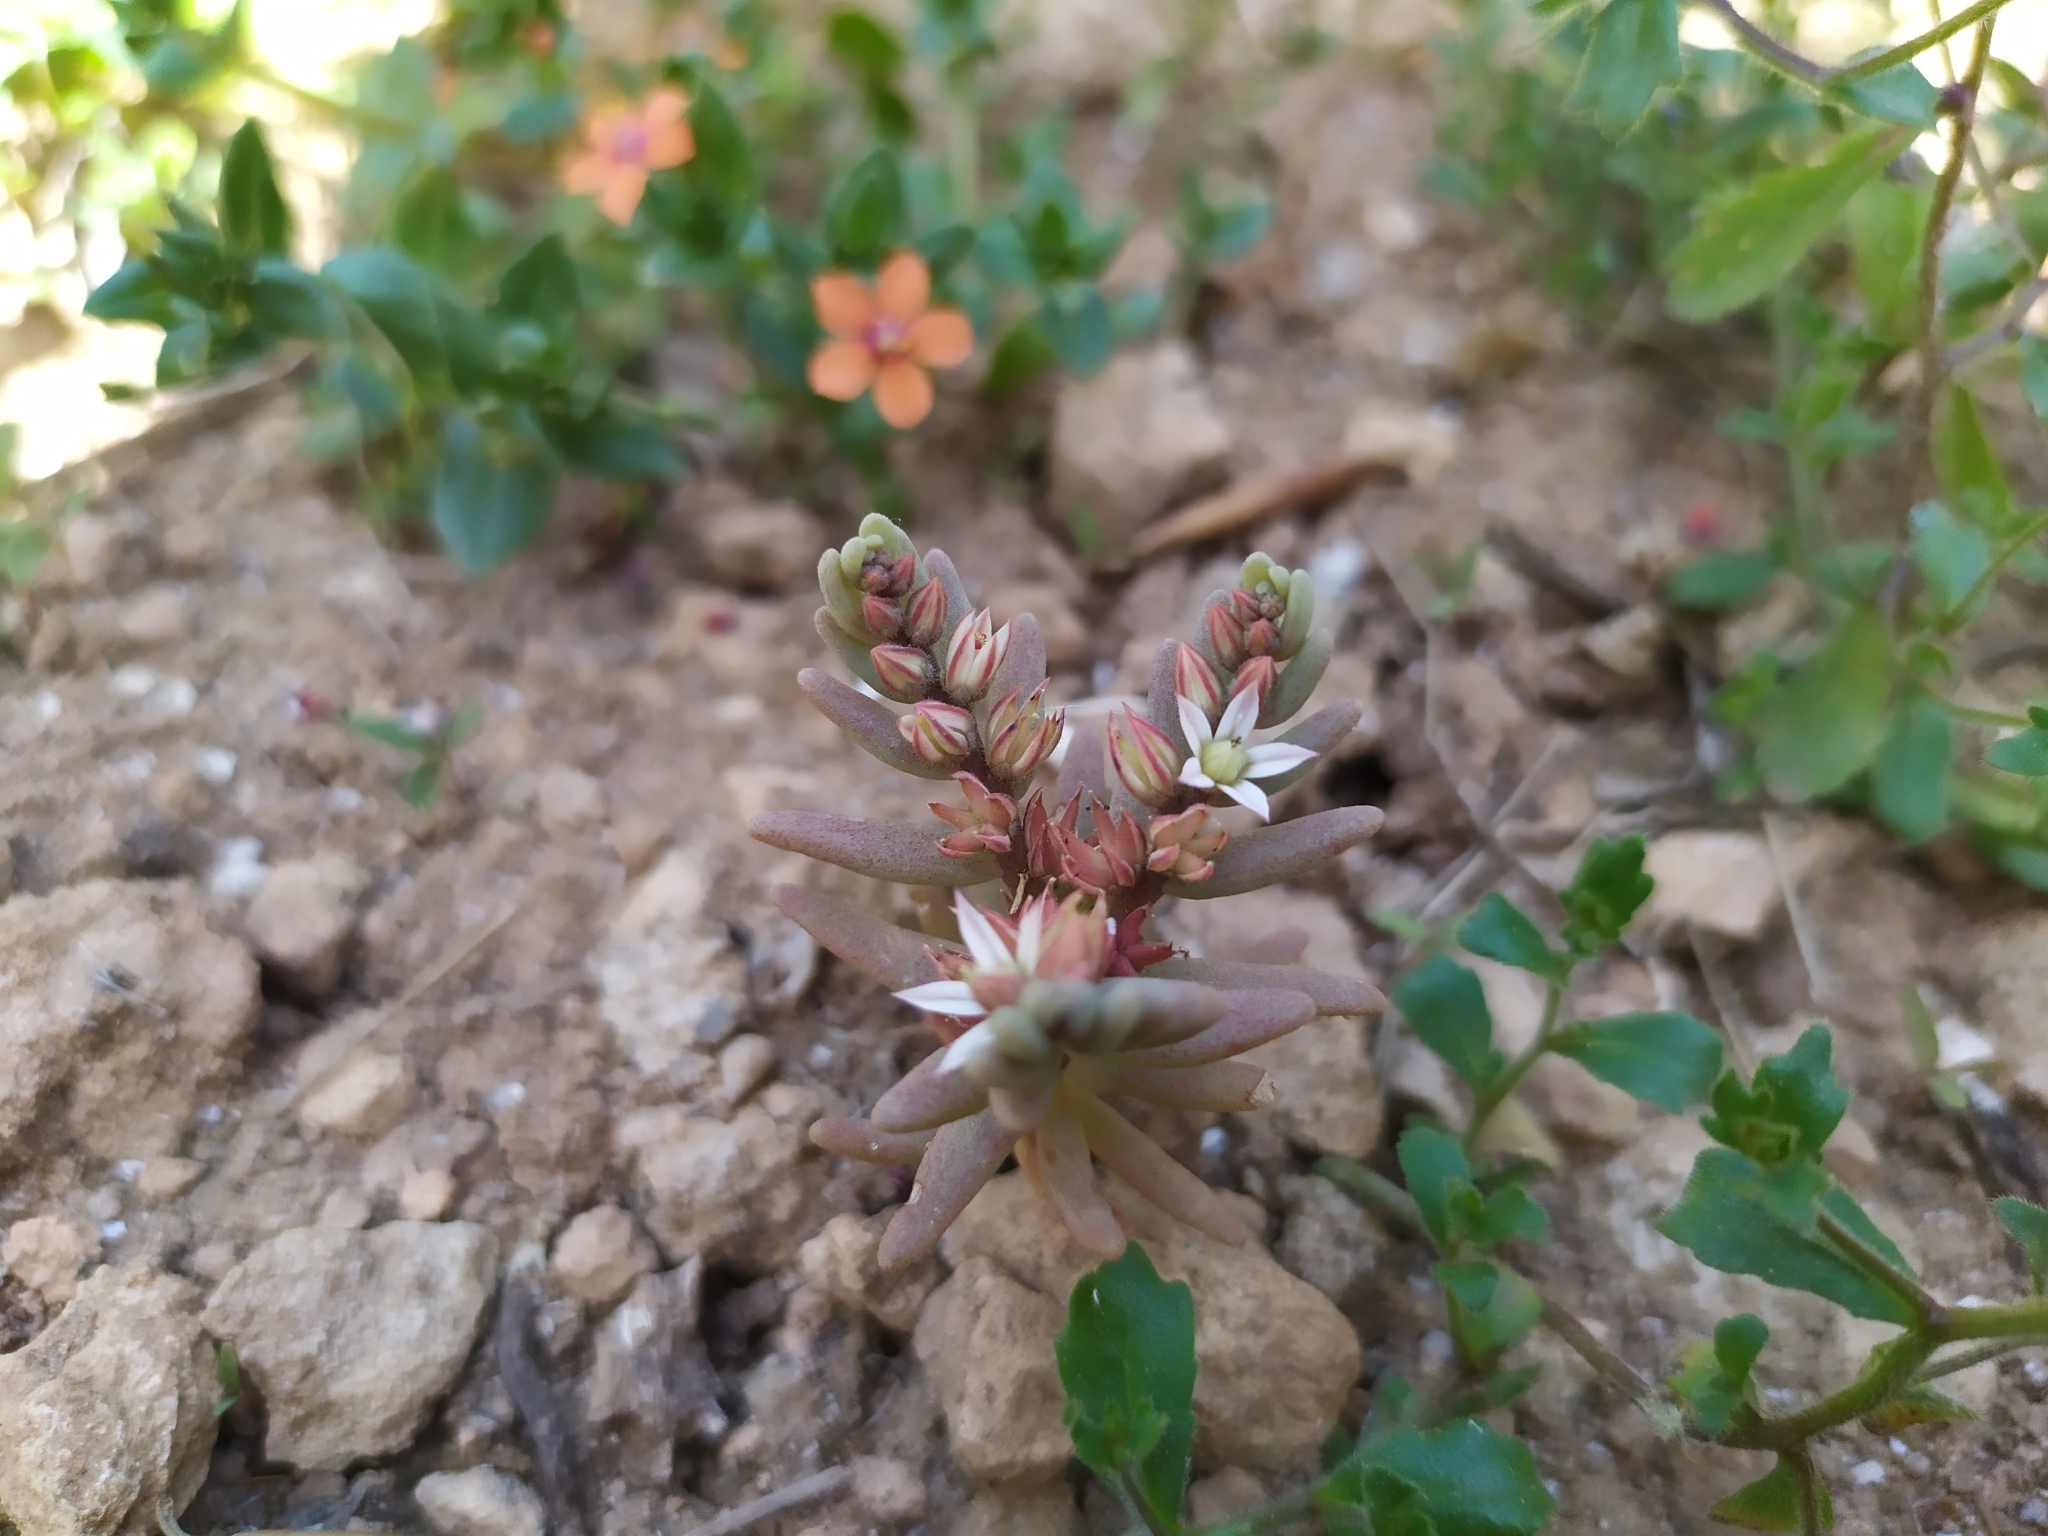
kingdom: Plantae
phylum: Tracheophyta
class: Magnoliopsida
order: Saxifragales
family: Crassulaceae
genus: Sedum
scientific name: Sedum rubens
